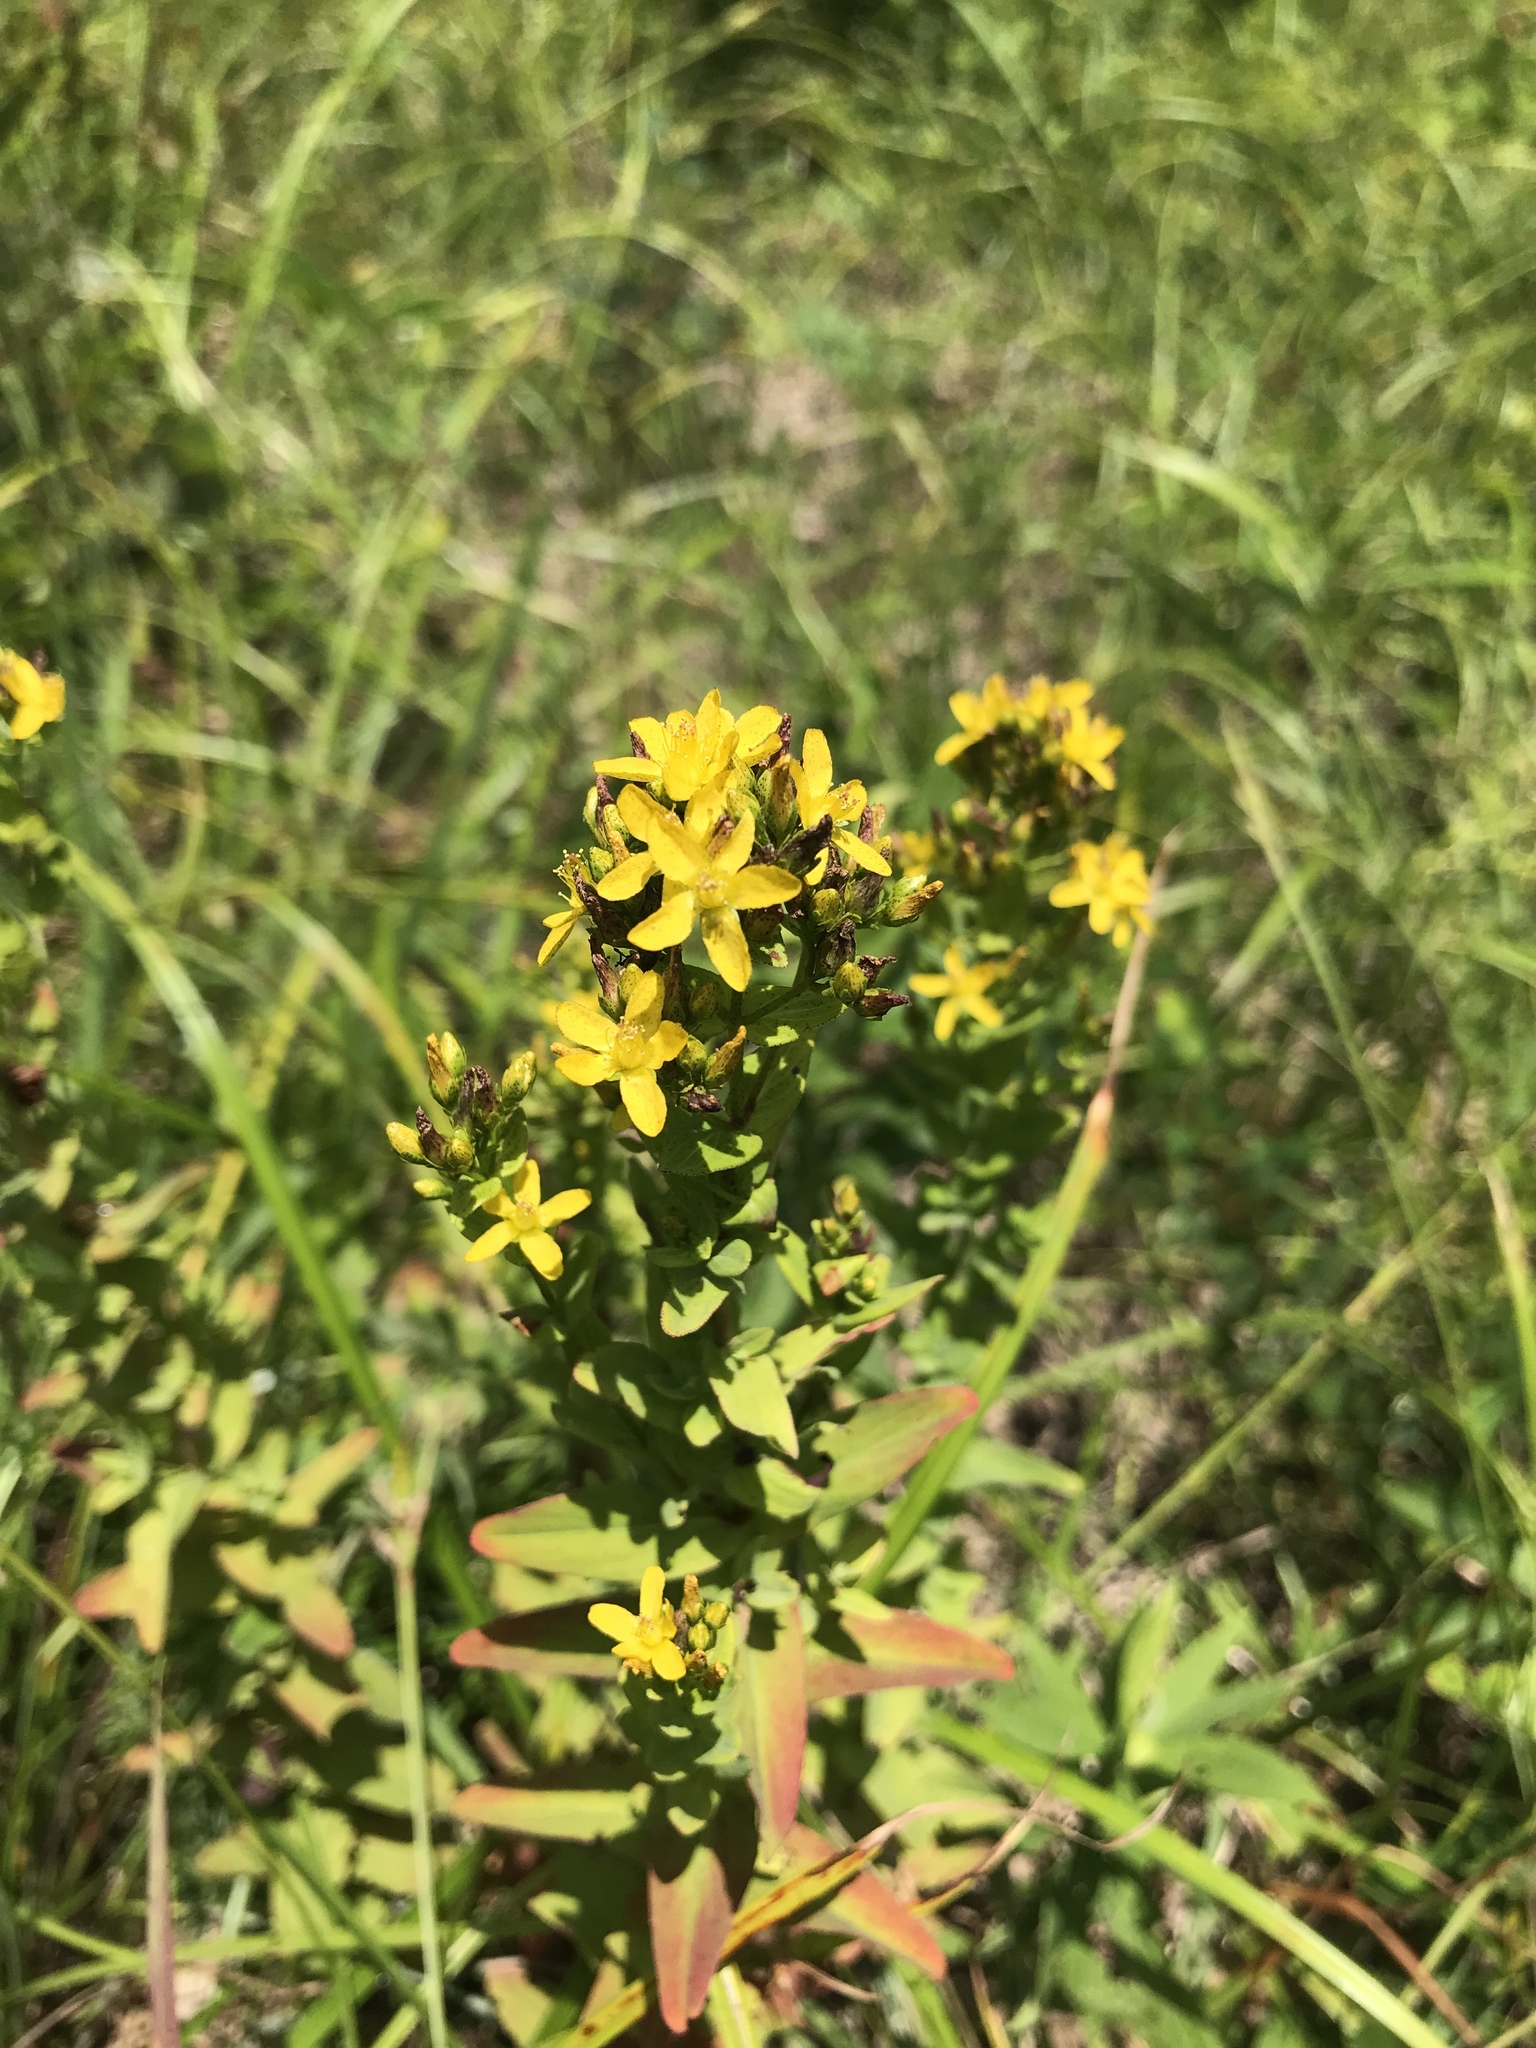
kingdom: Plantae
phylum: Tracheophyta
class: Magnoliopsida
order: Malpighiales
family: Hypericaceae
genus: Hypericum
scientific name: Hypericum punctatum
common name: Spotted st. john's-wort
